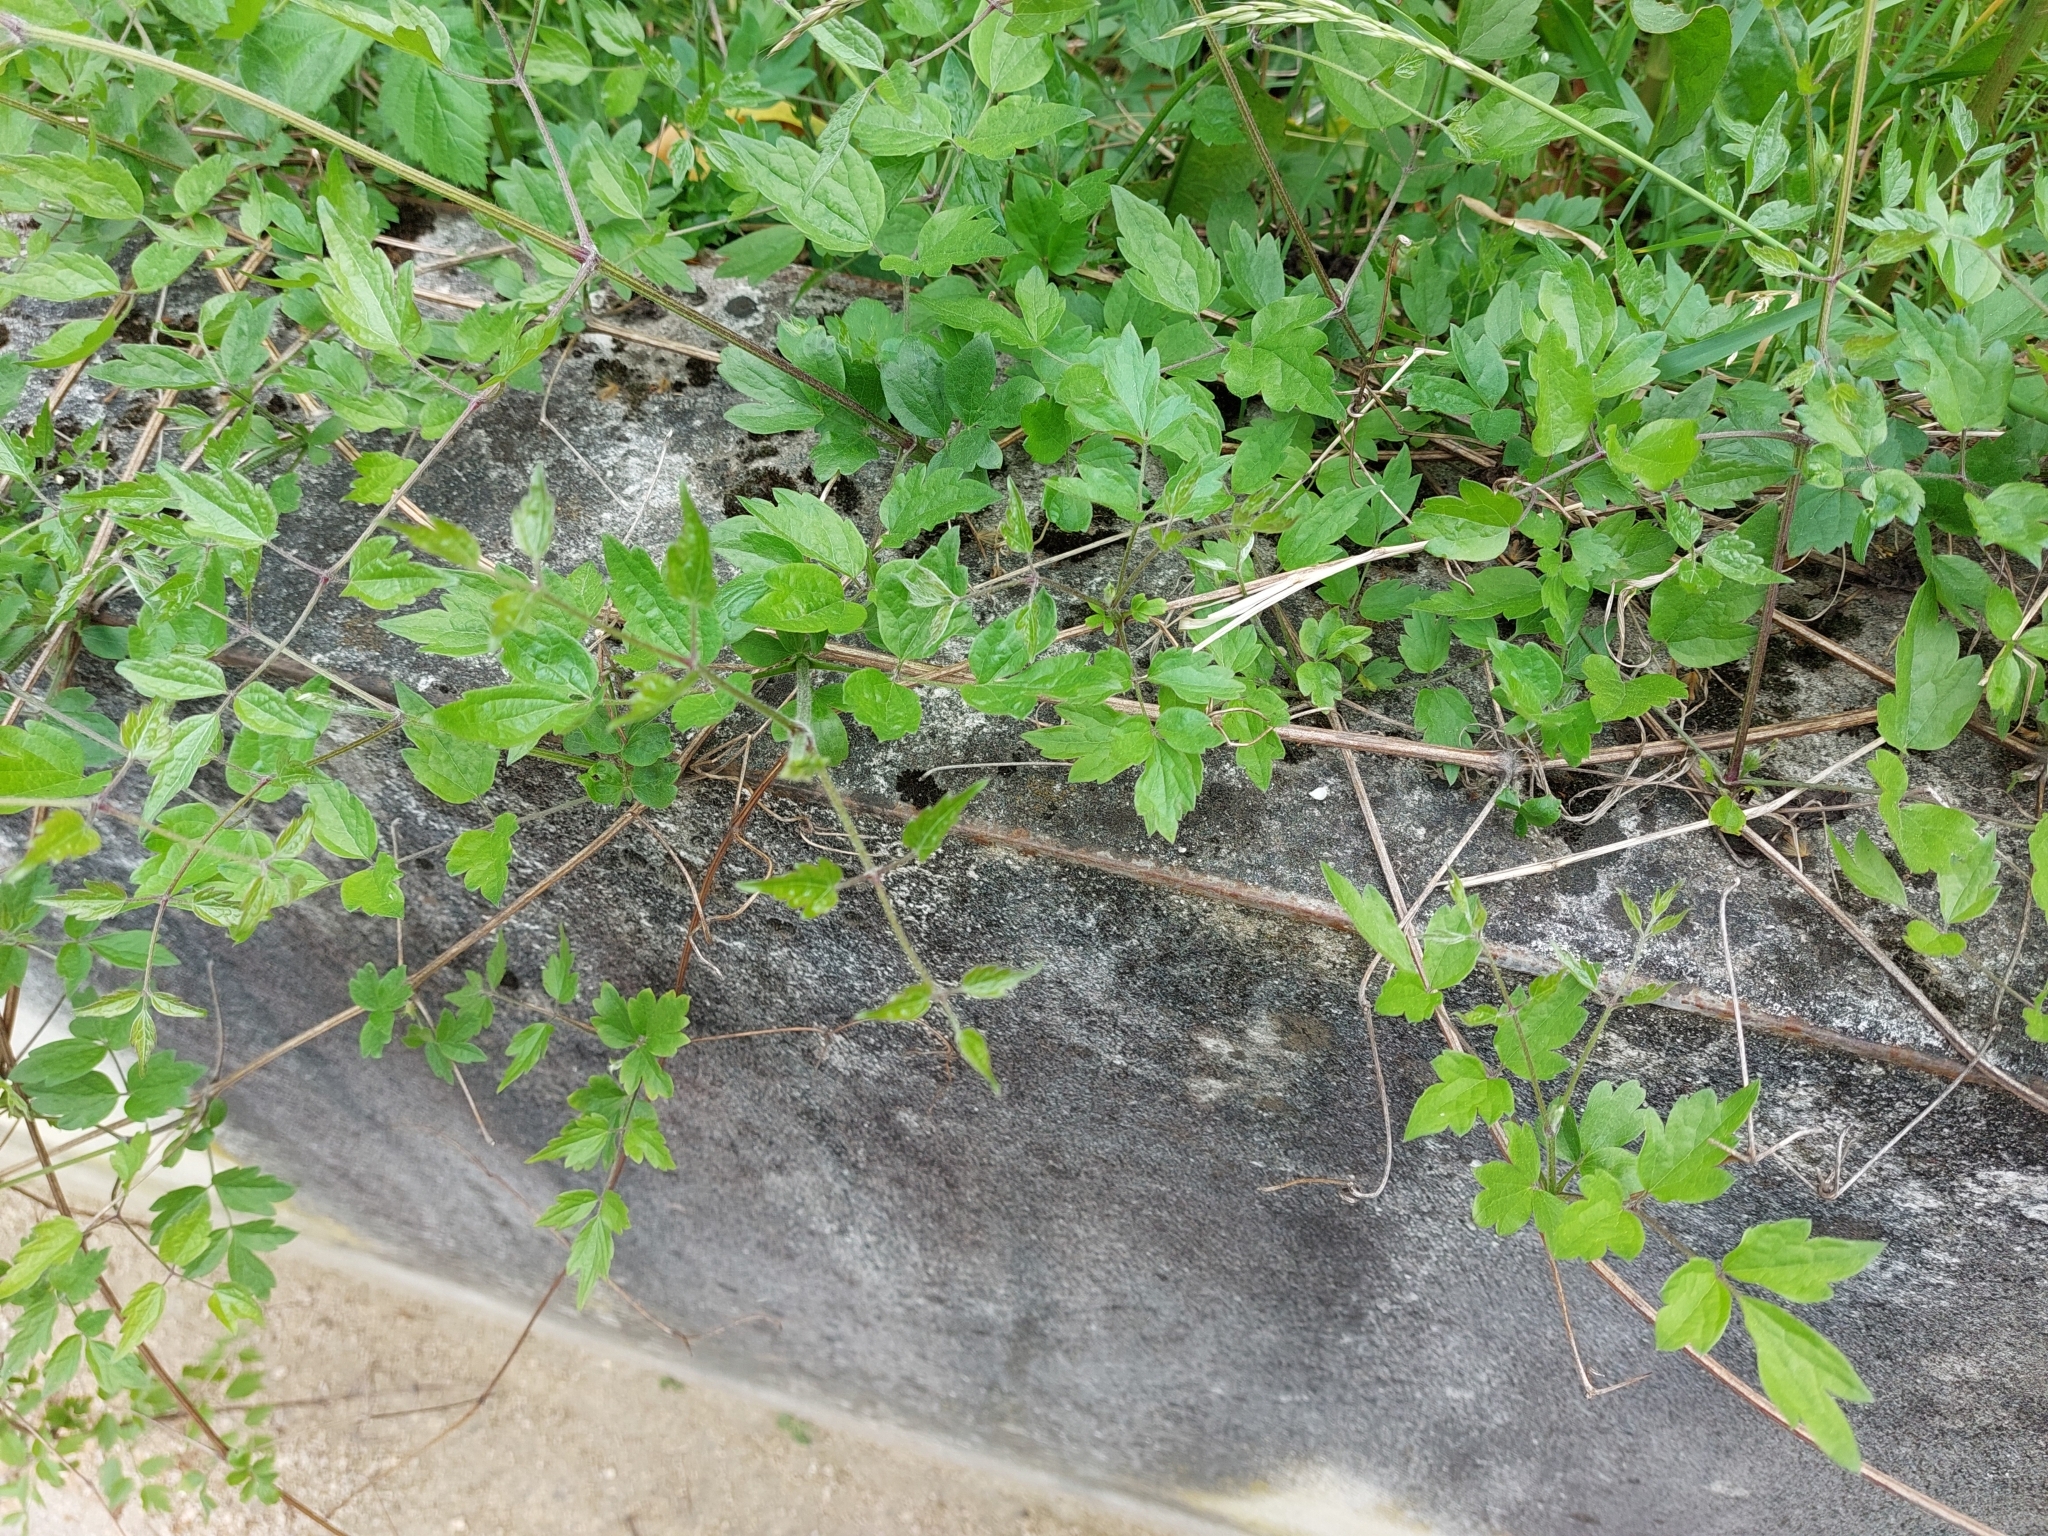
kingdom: Plantae
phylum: Tracheophyta
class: Magnoliopsida
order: Ranunculales
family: Ranunculaceae
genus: Clematis
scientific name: Clematis vitalba
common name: Evergreen clematis
